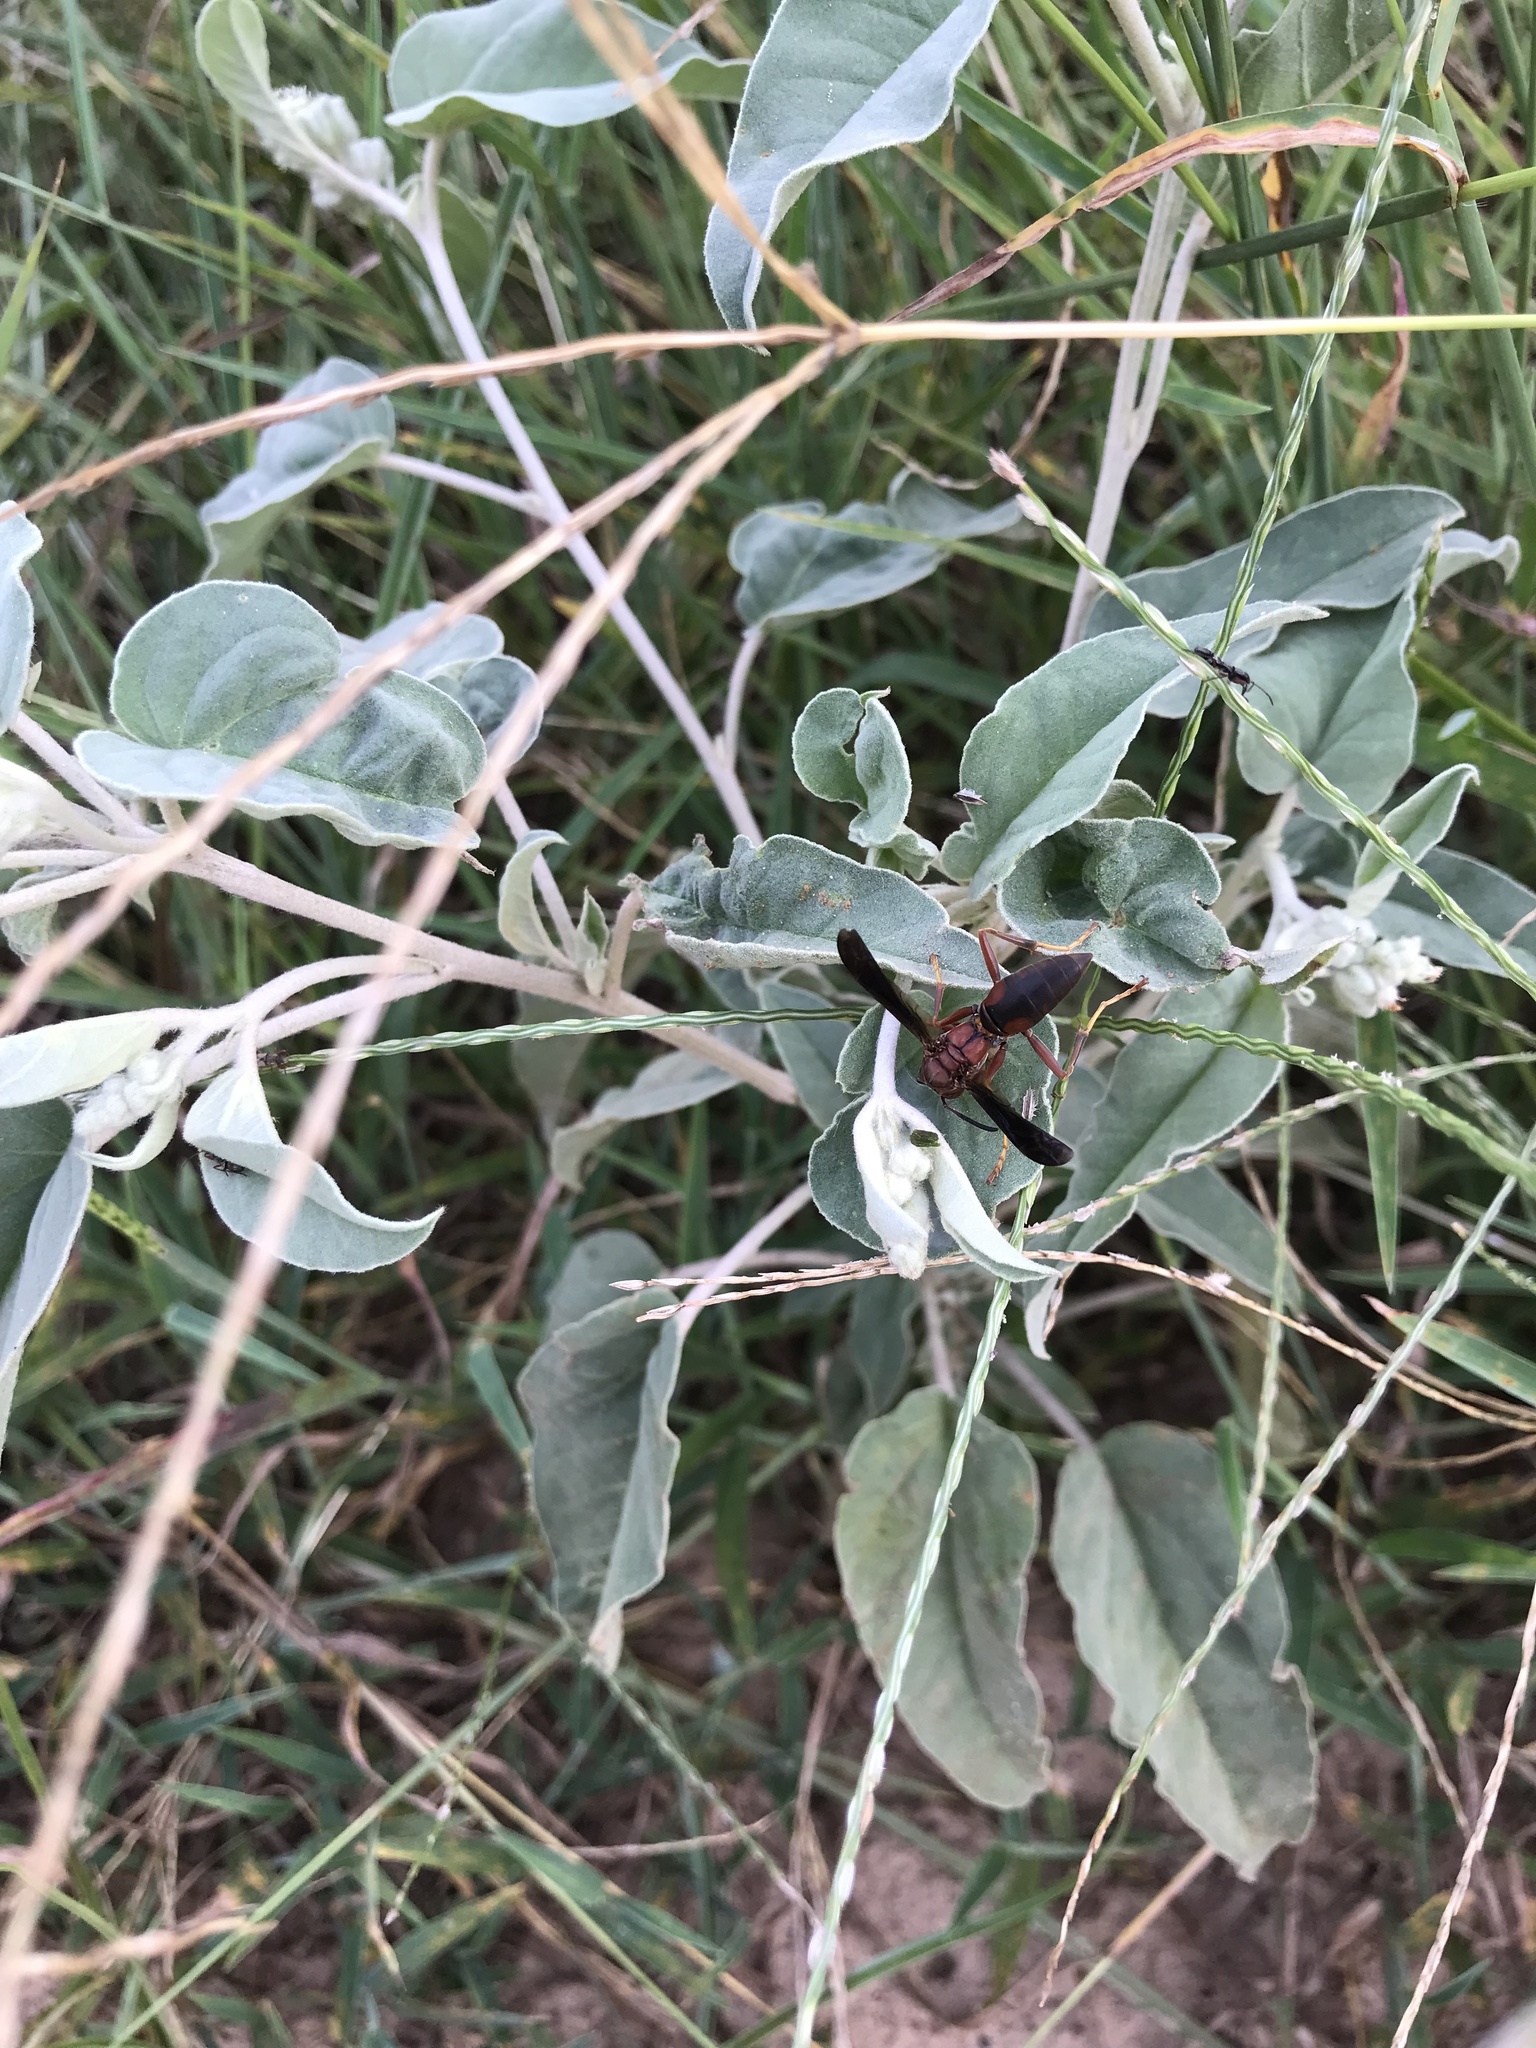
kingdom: Animalia
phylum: Arthropoda
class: Insecta
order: Hymenoptera
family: Eumenidae
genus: Polistes
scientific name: Polistes metricus
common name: Metric paper wasp
